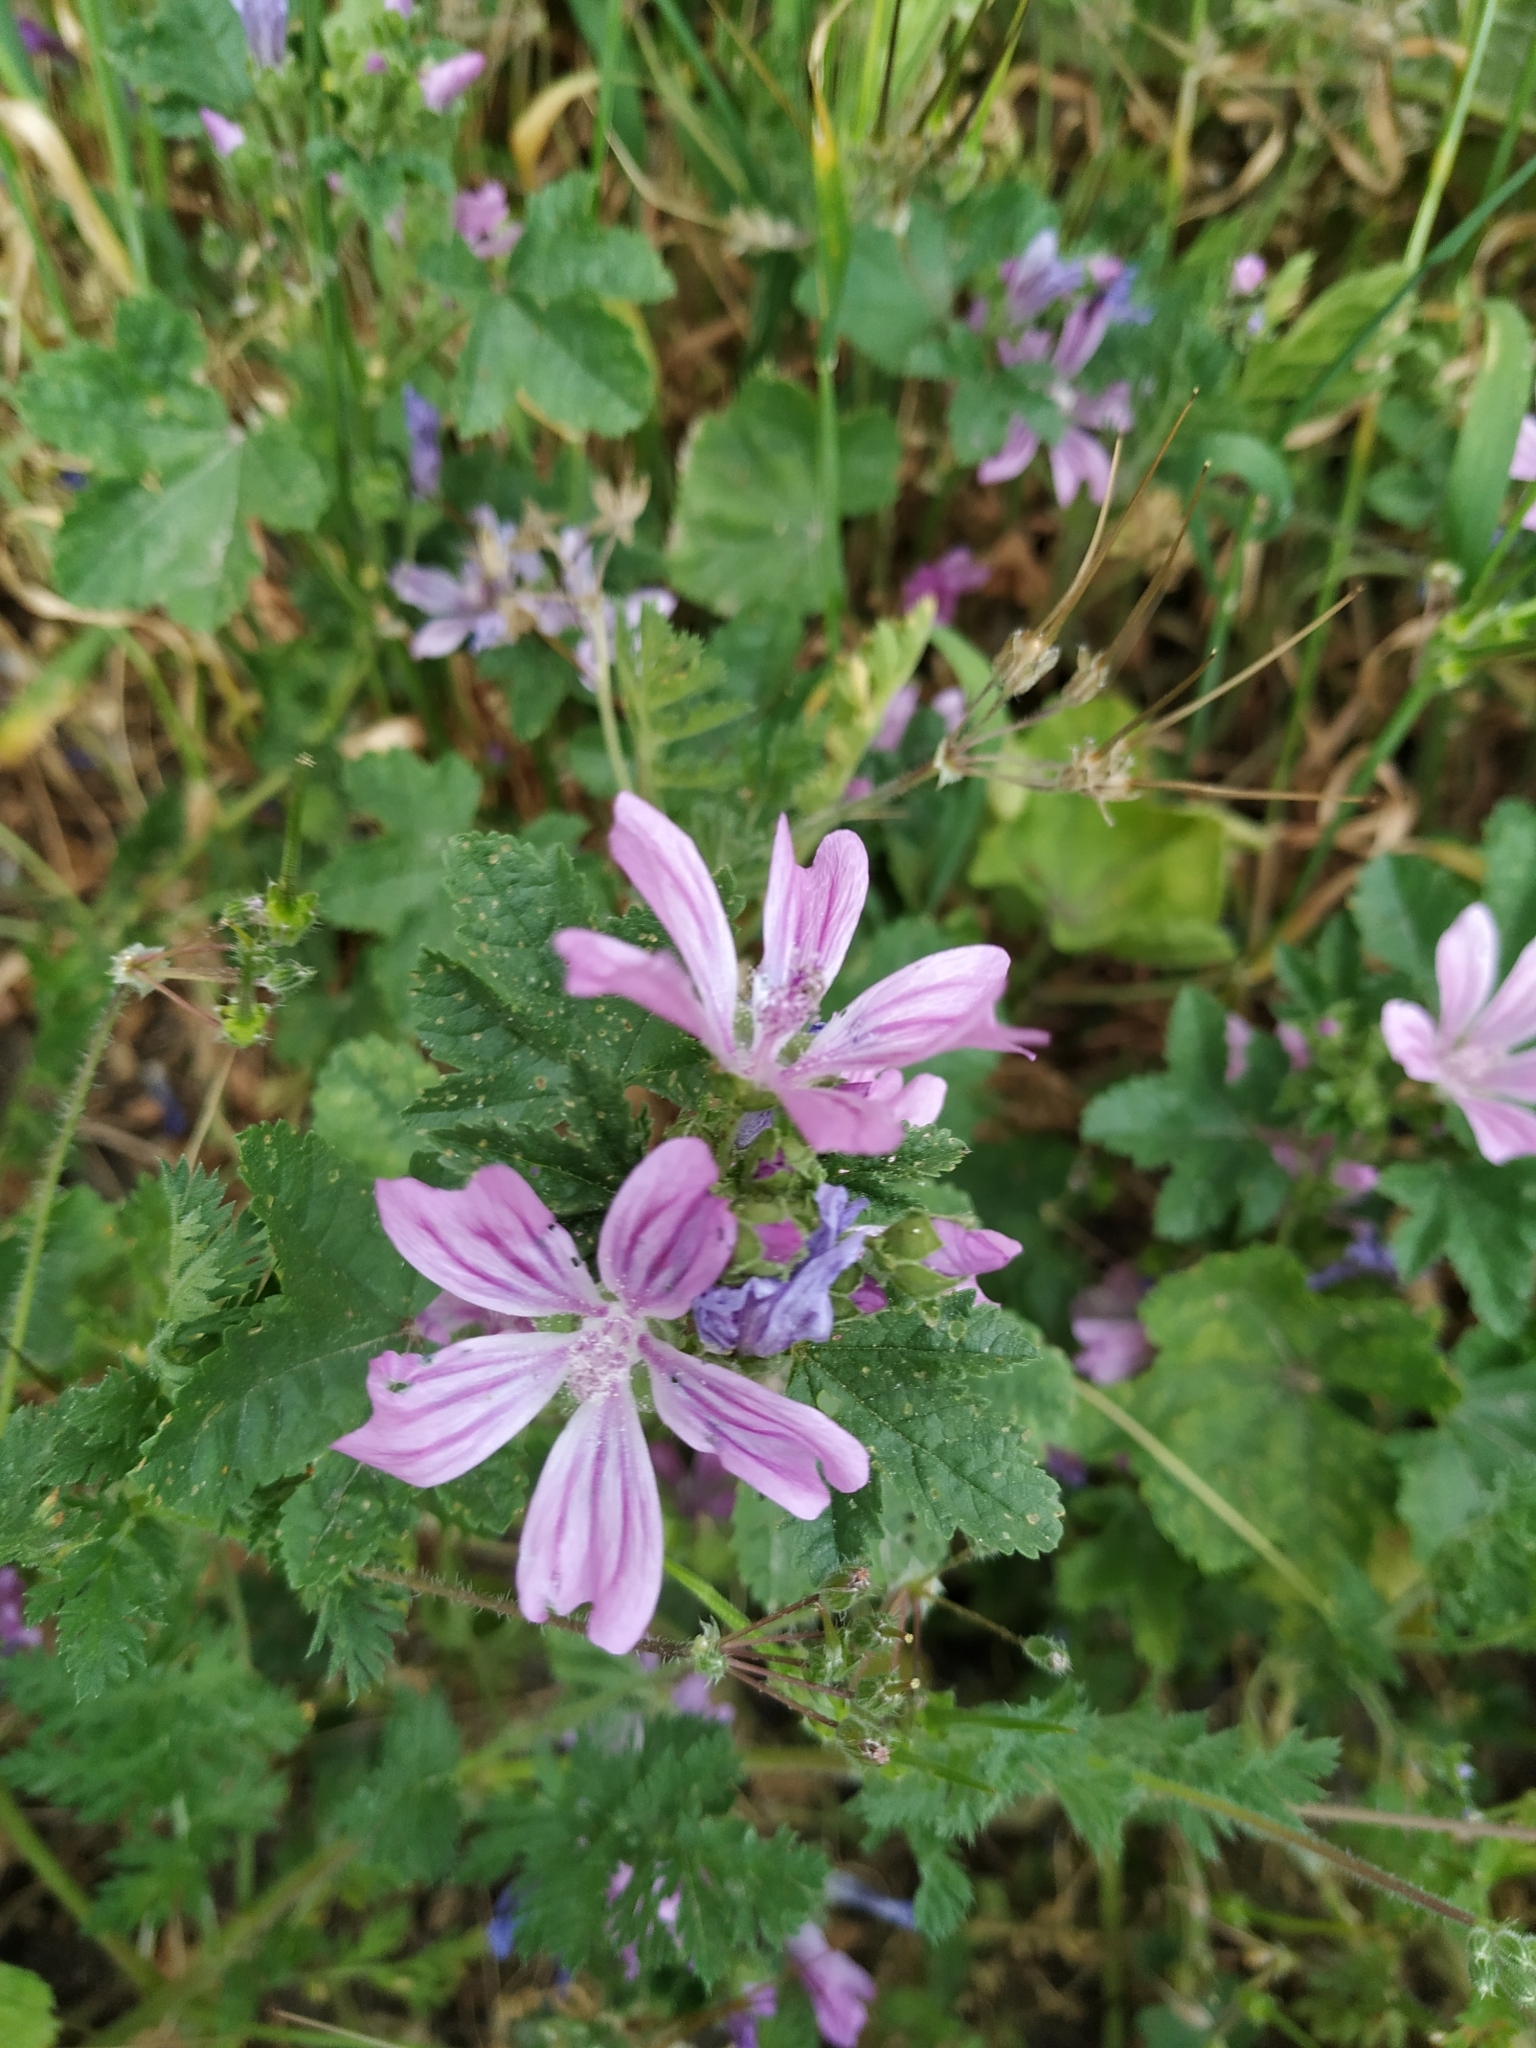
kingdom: Plantae
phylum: Tracheophyta
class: Magnoliopsida
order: Malvales
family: Malvaceae
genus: Malva
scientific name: Malva sylvestris
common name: Common mallow
